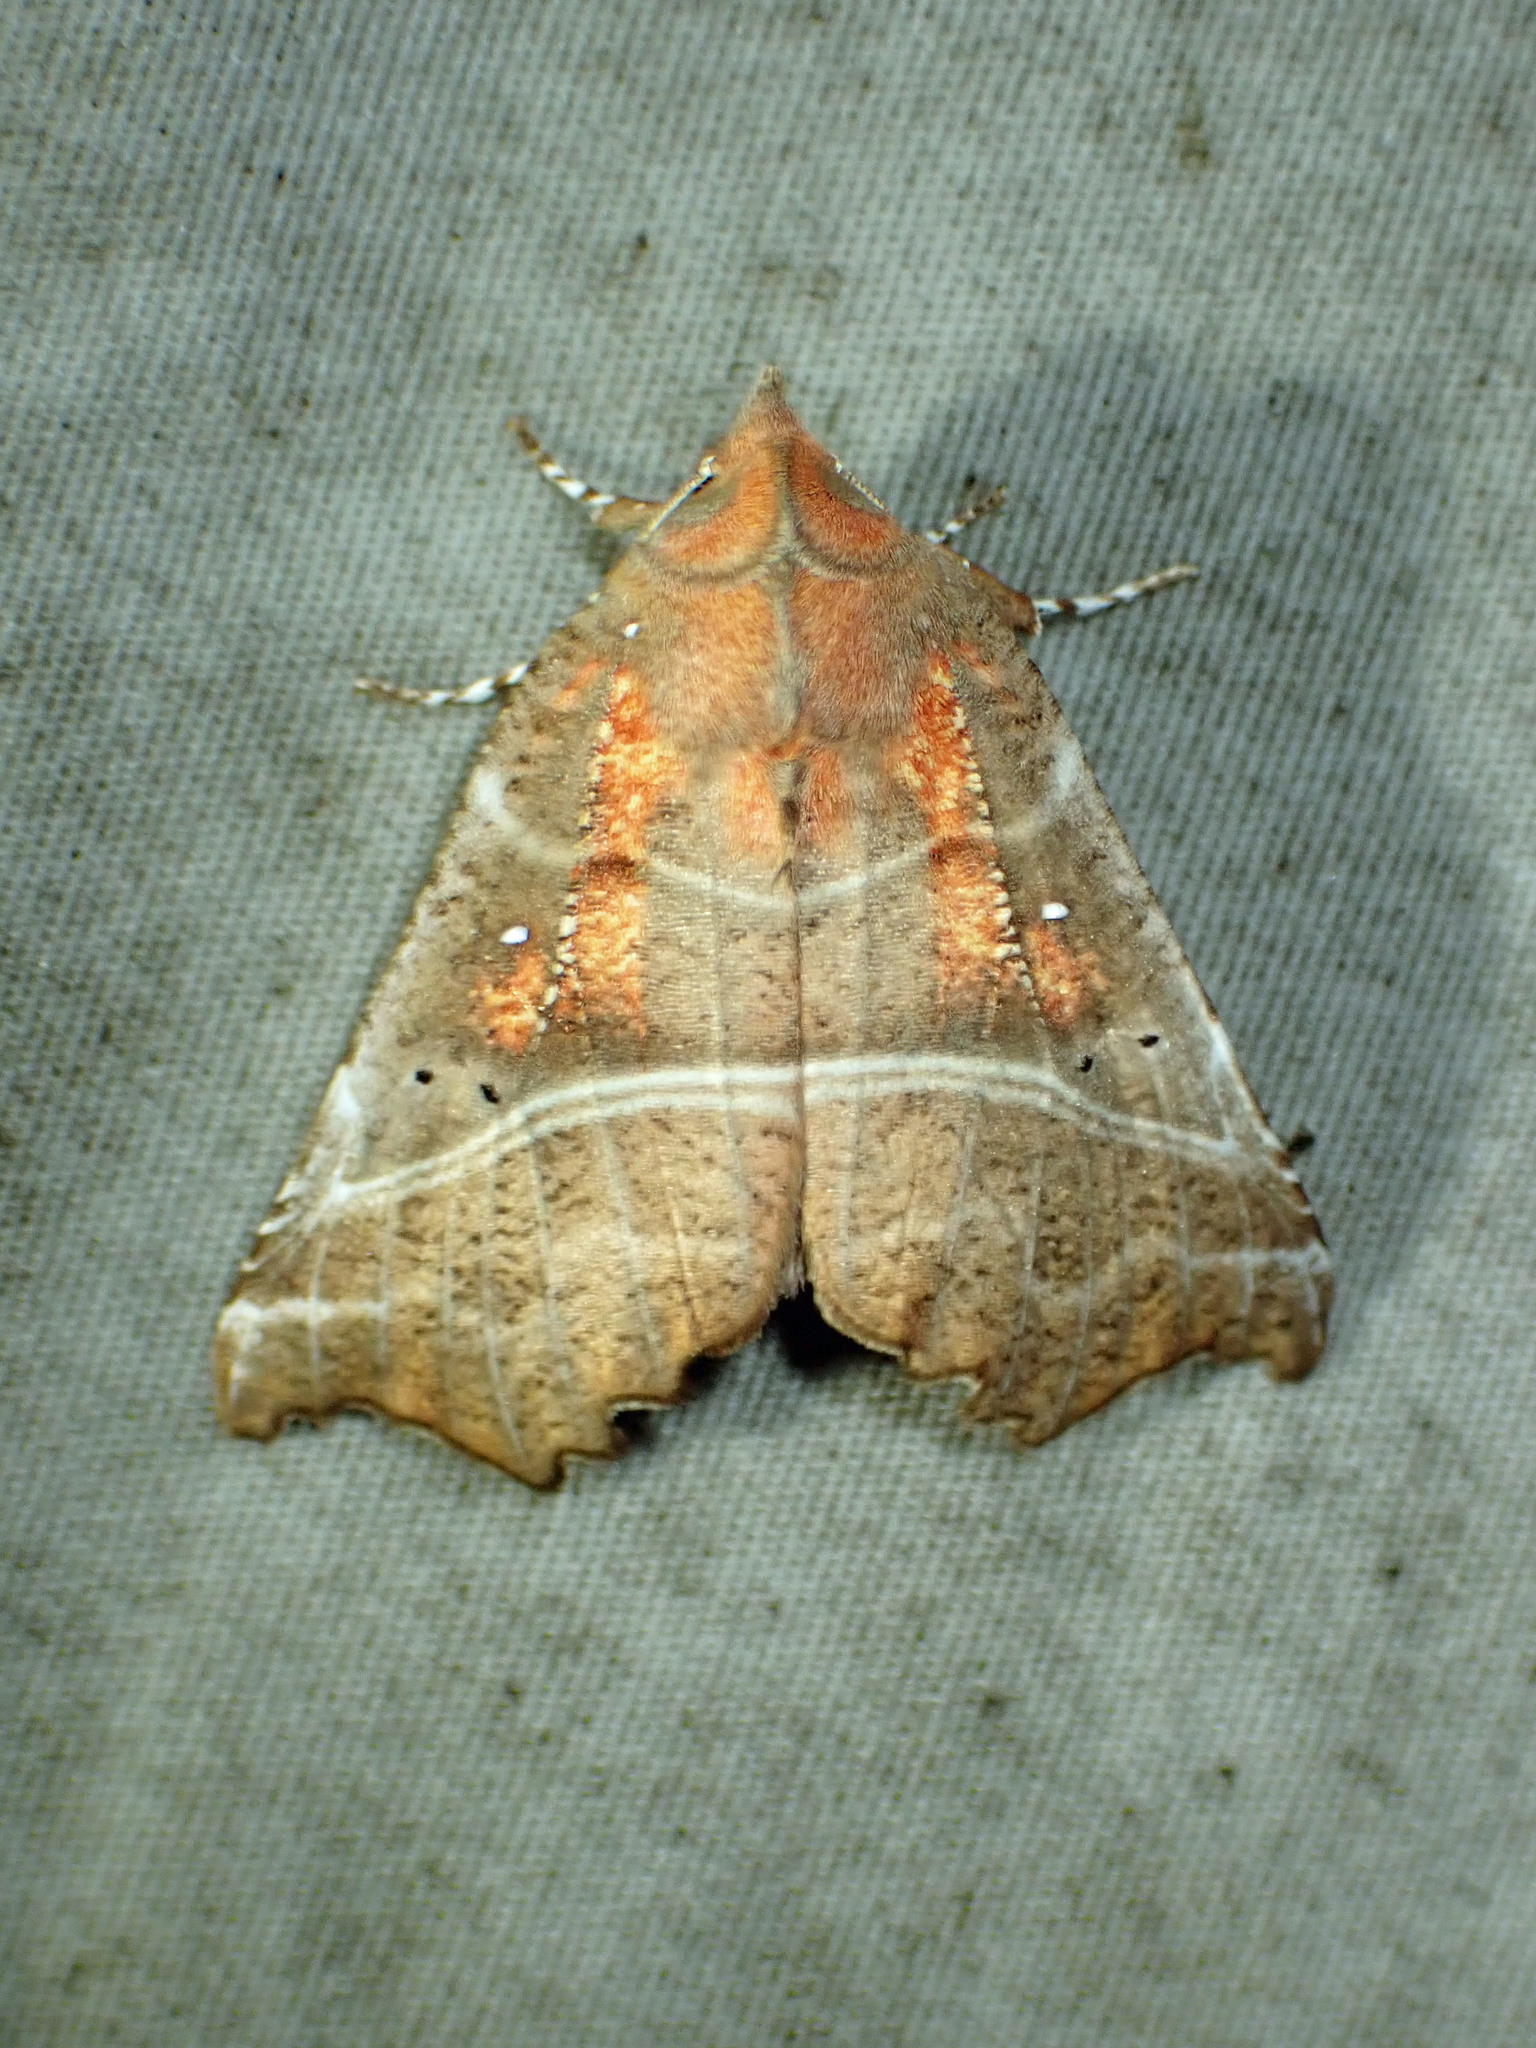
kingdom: Animalia
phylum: Arthropoda
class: Insecta
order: Lepidoptera
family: Erebidae
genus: Scoliopteryx
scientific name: Scoliopteryx libatrix
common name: Herald
